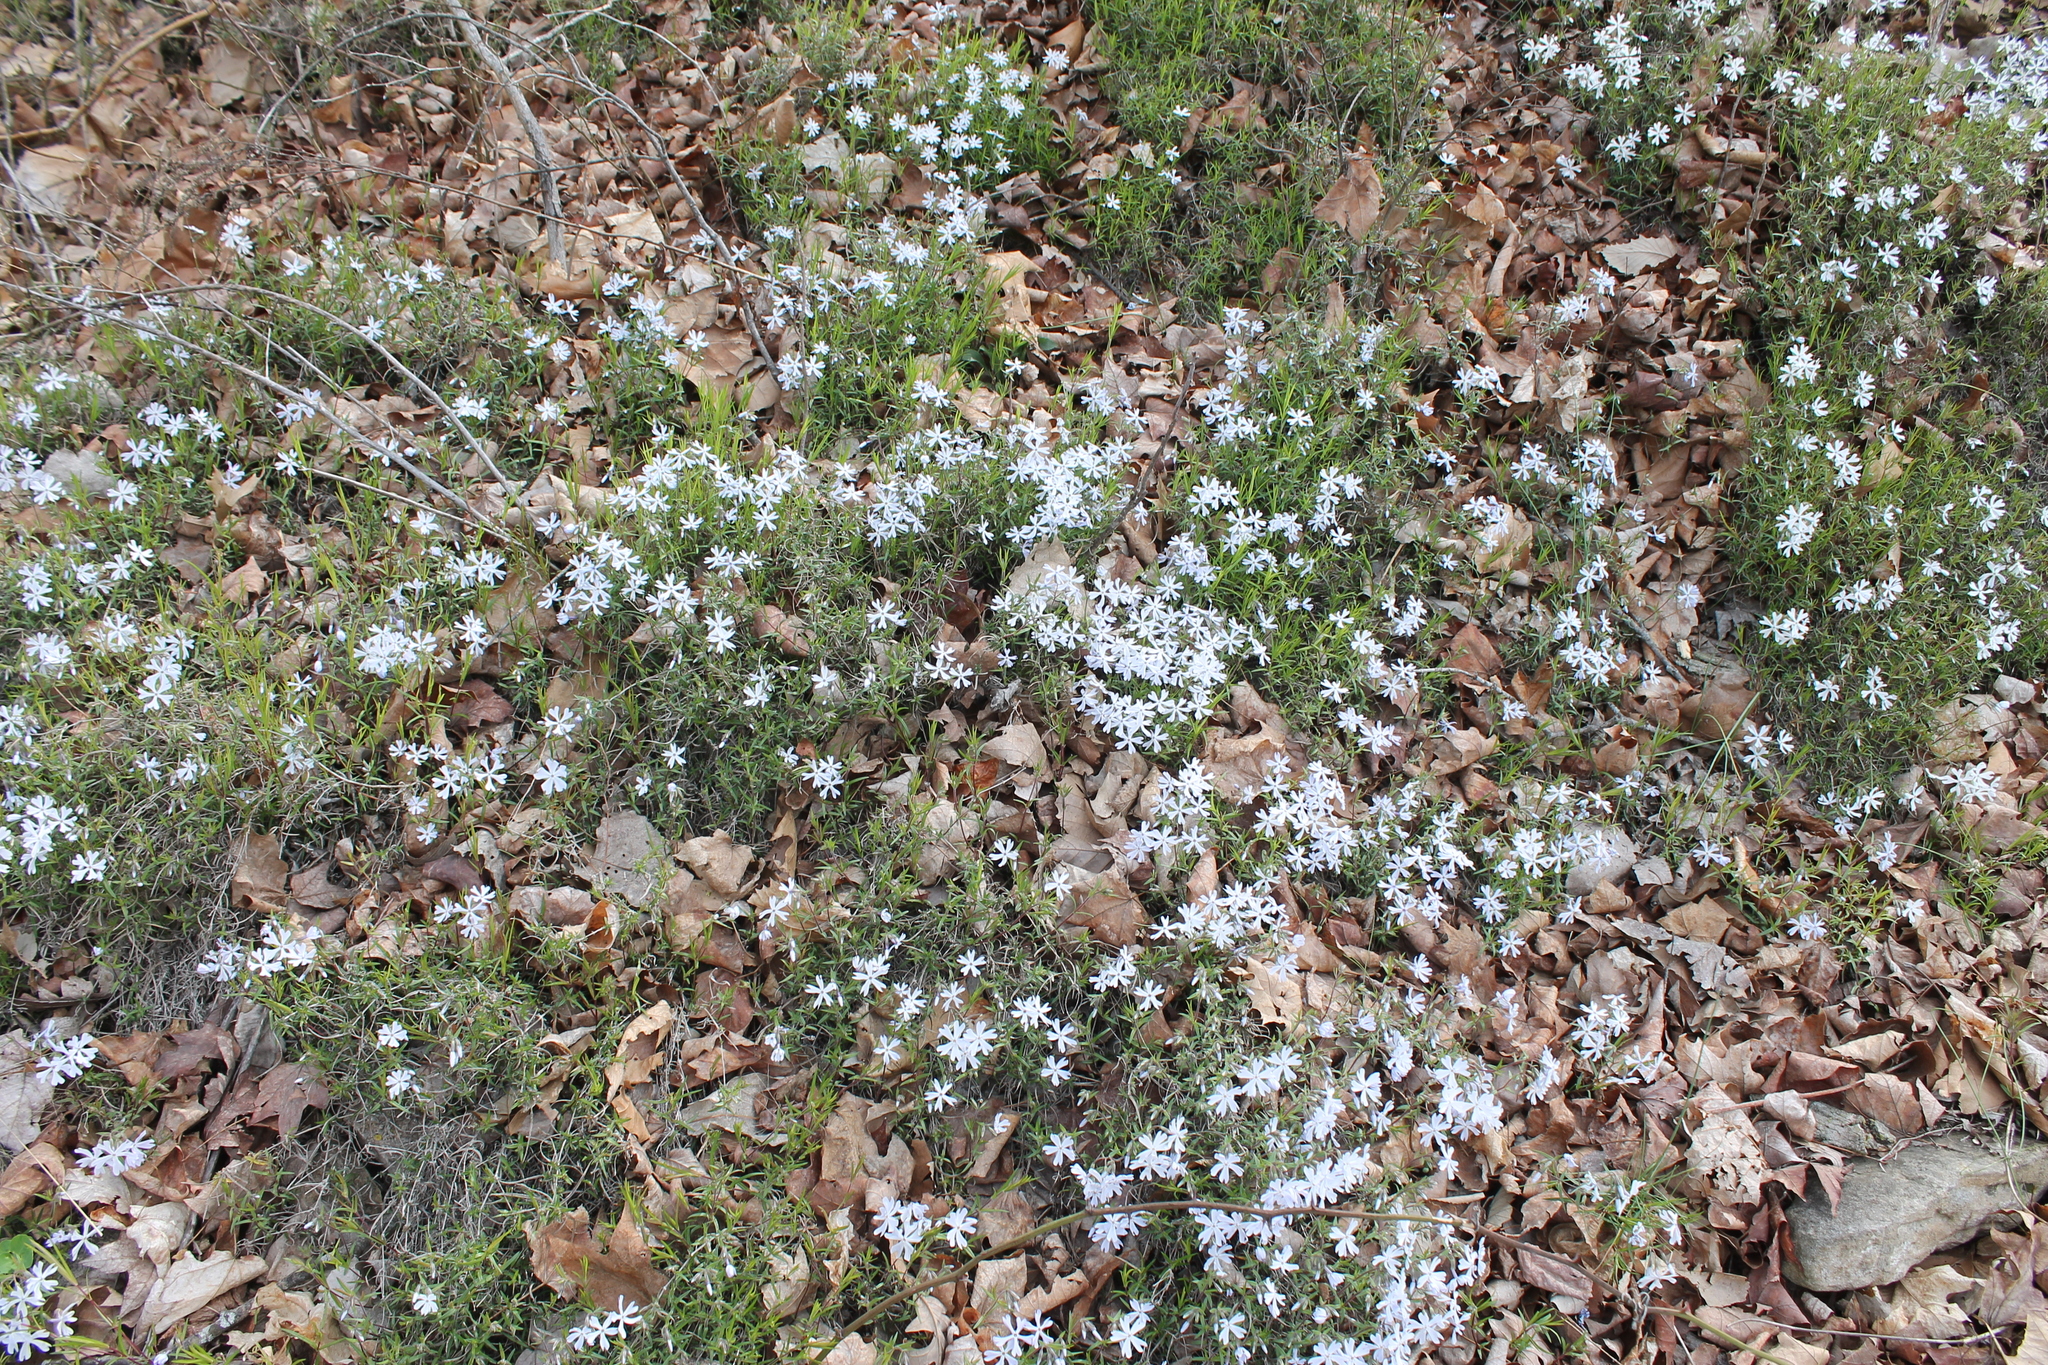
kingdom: Plantae
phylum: Tracheophyta
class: Magnoliopsida
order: Ericales
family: Polemoniaceae
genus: Phlox
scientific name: Phlox bifida
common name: Sand phlox
